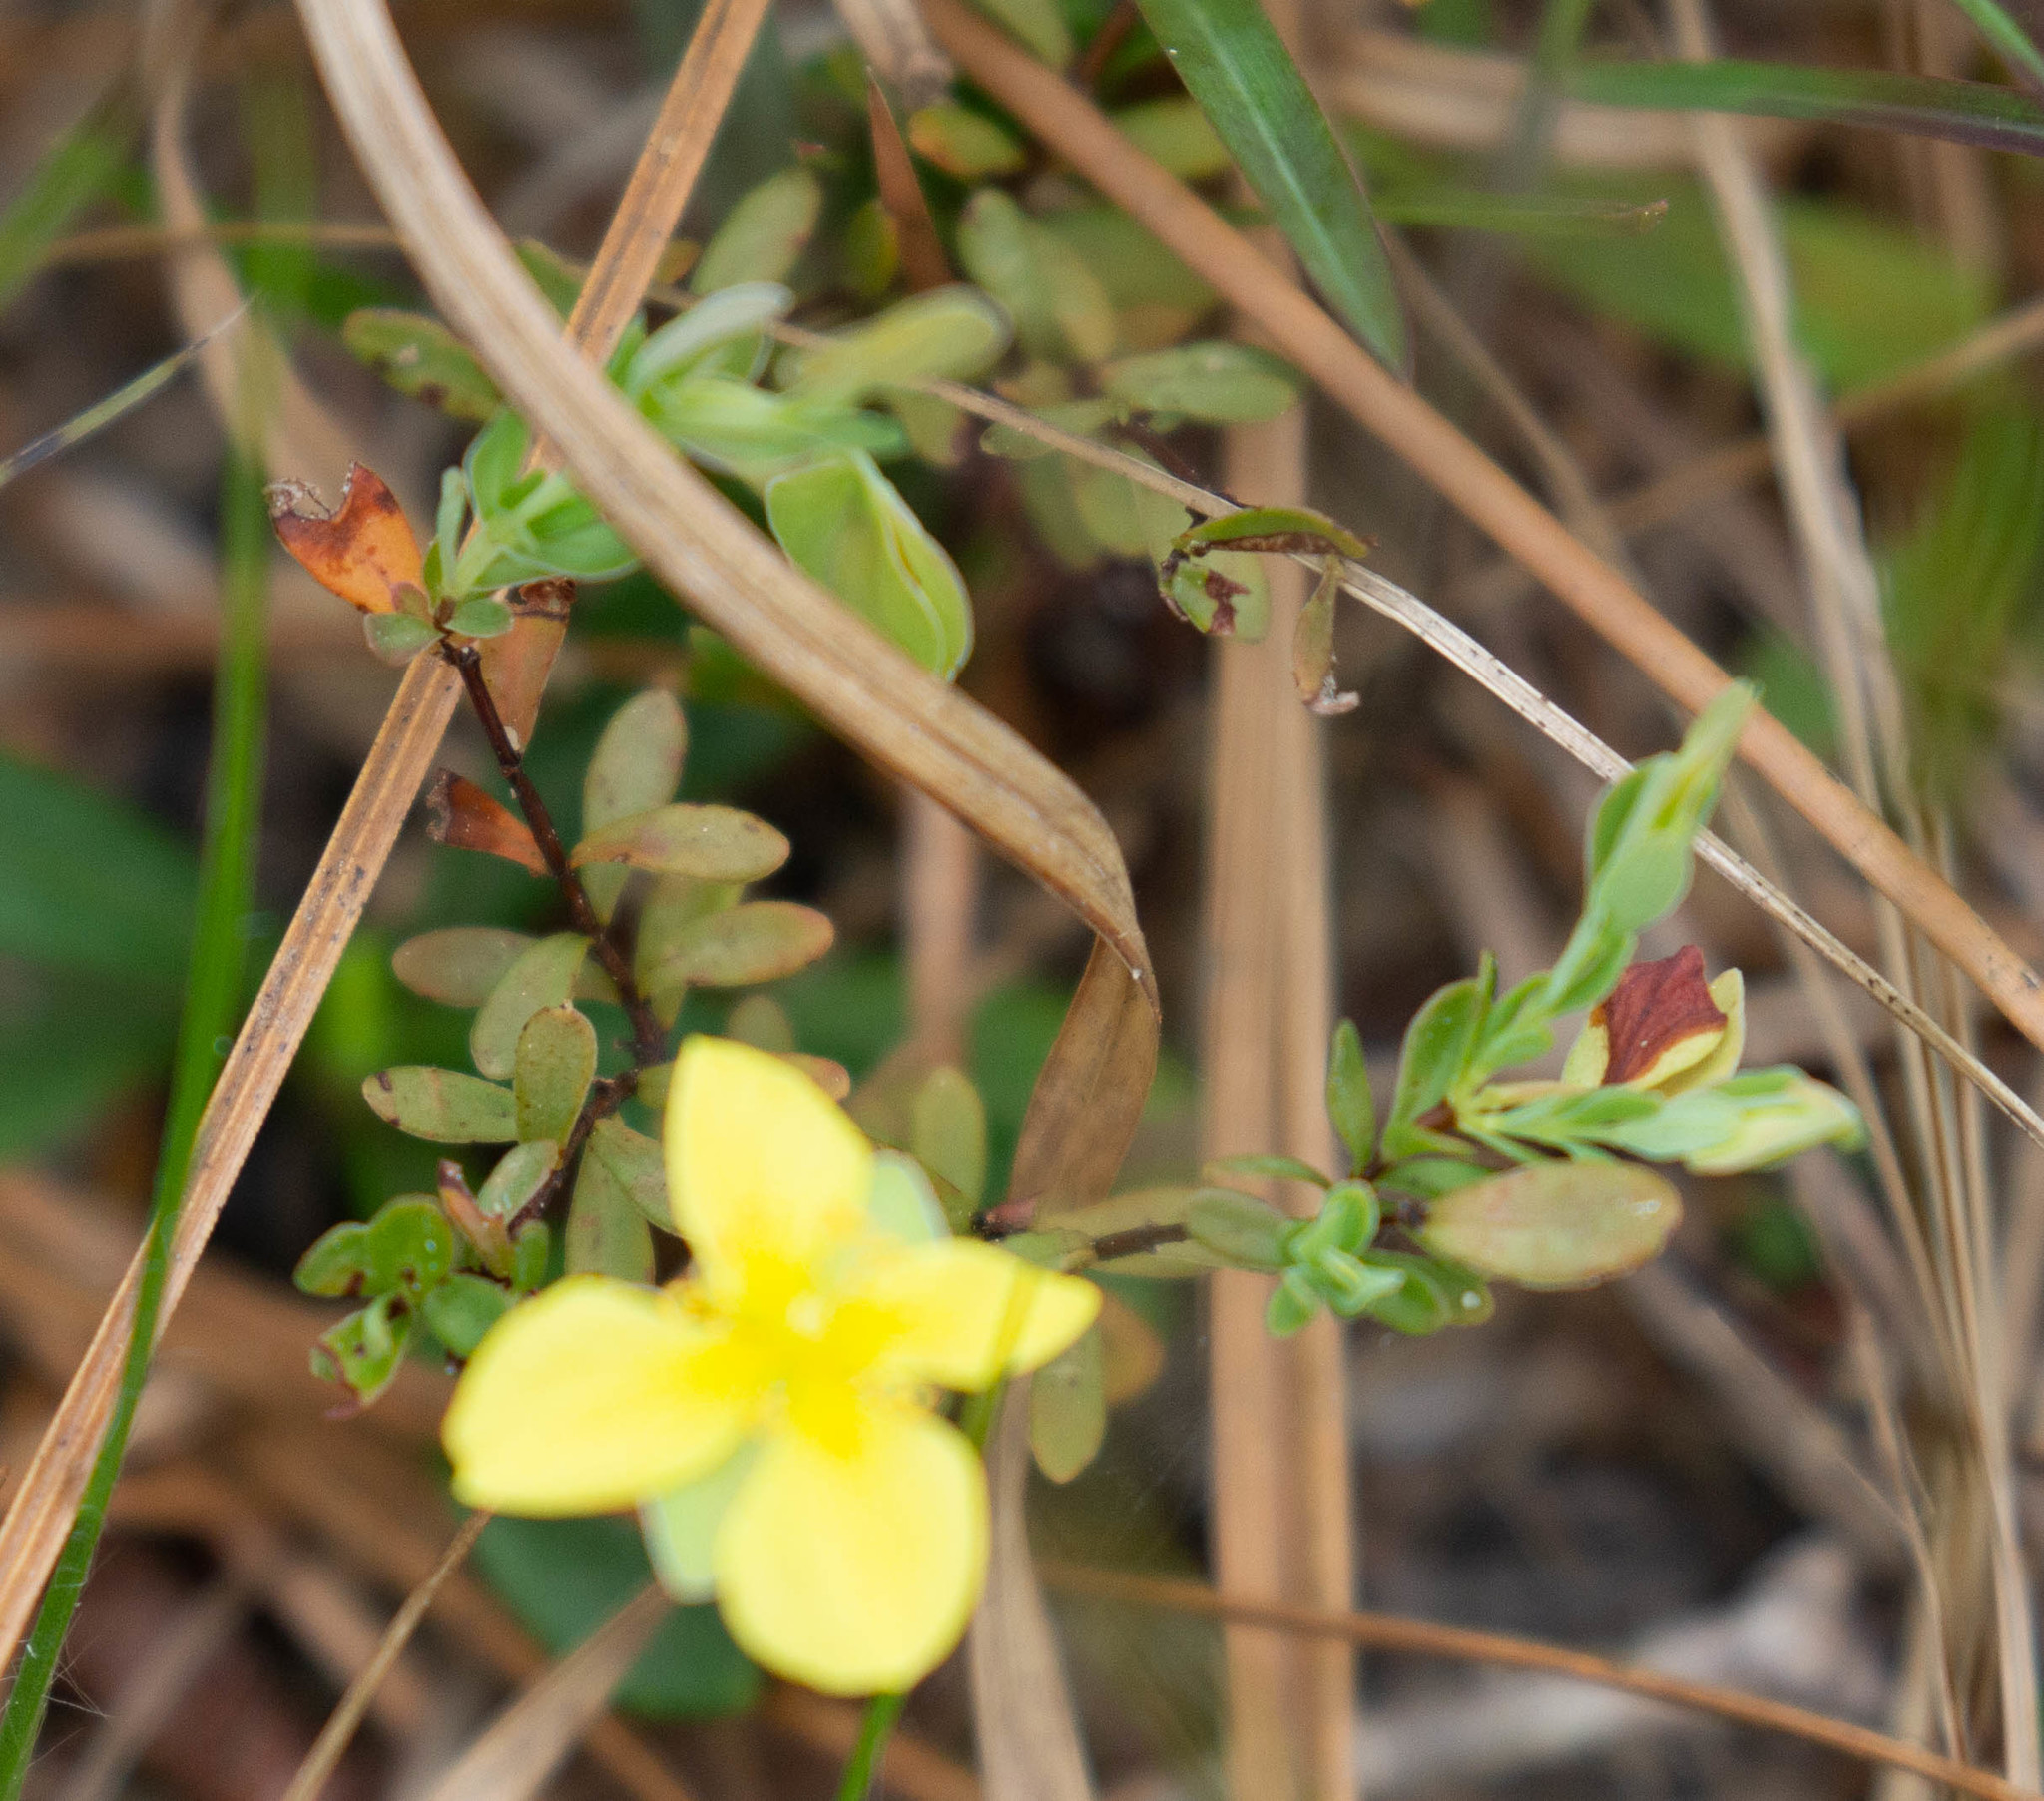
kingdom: Plantae
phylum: Tracheophyta
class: Magnoliopsida
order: Malpighiales
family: Hypericaceae
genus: Hypericum
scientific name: Hypericum suffruticosum
